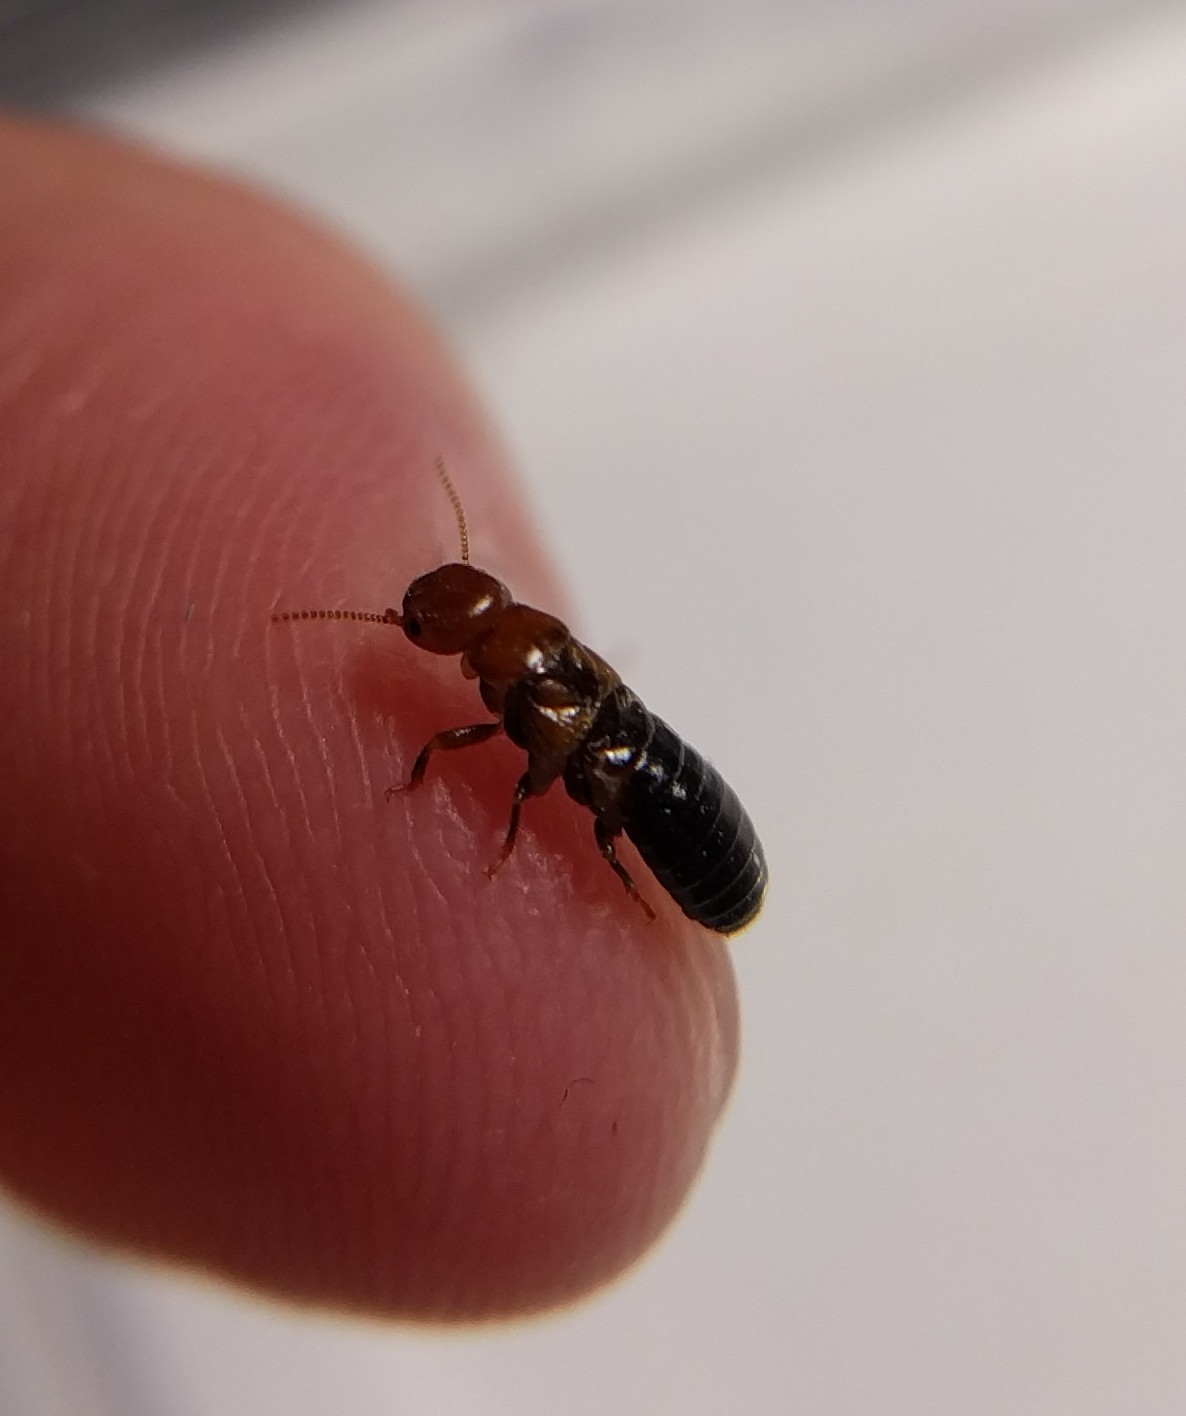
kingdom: Animalia
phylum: Arthropoda
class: Insecta
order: Blattodea
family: Kalotermitidae
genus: Incisitermes
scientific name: Incisitermes minor
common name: Termite
